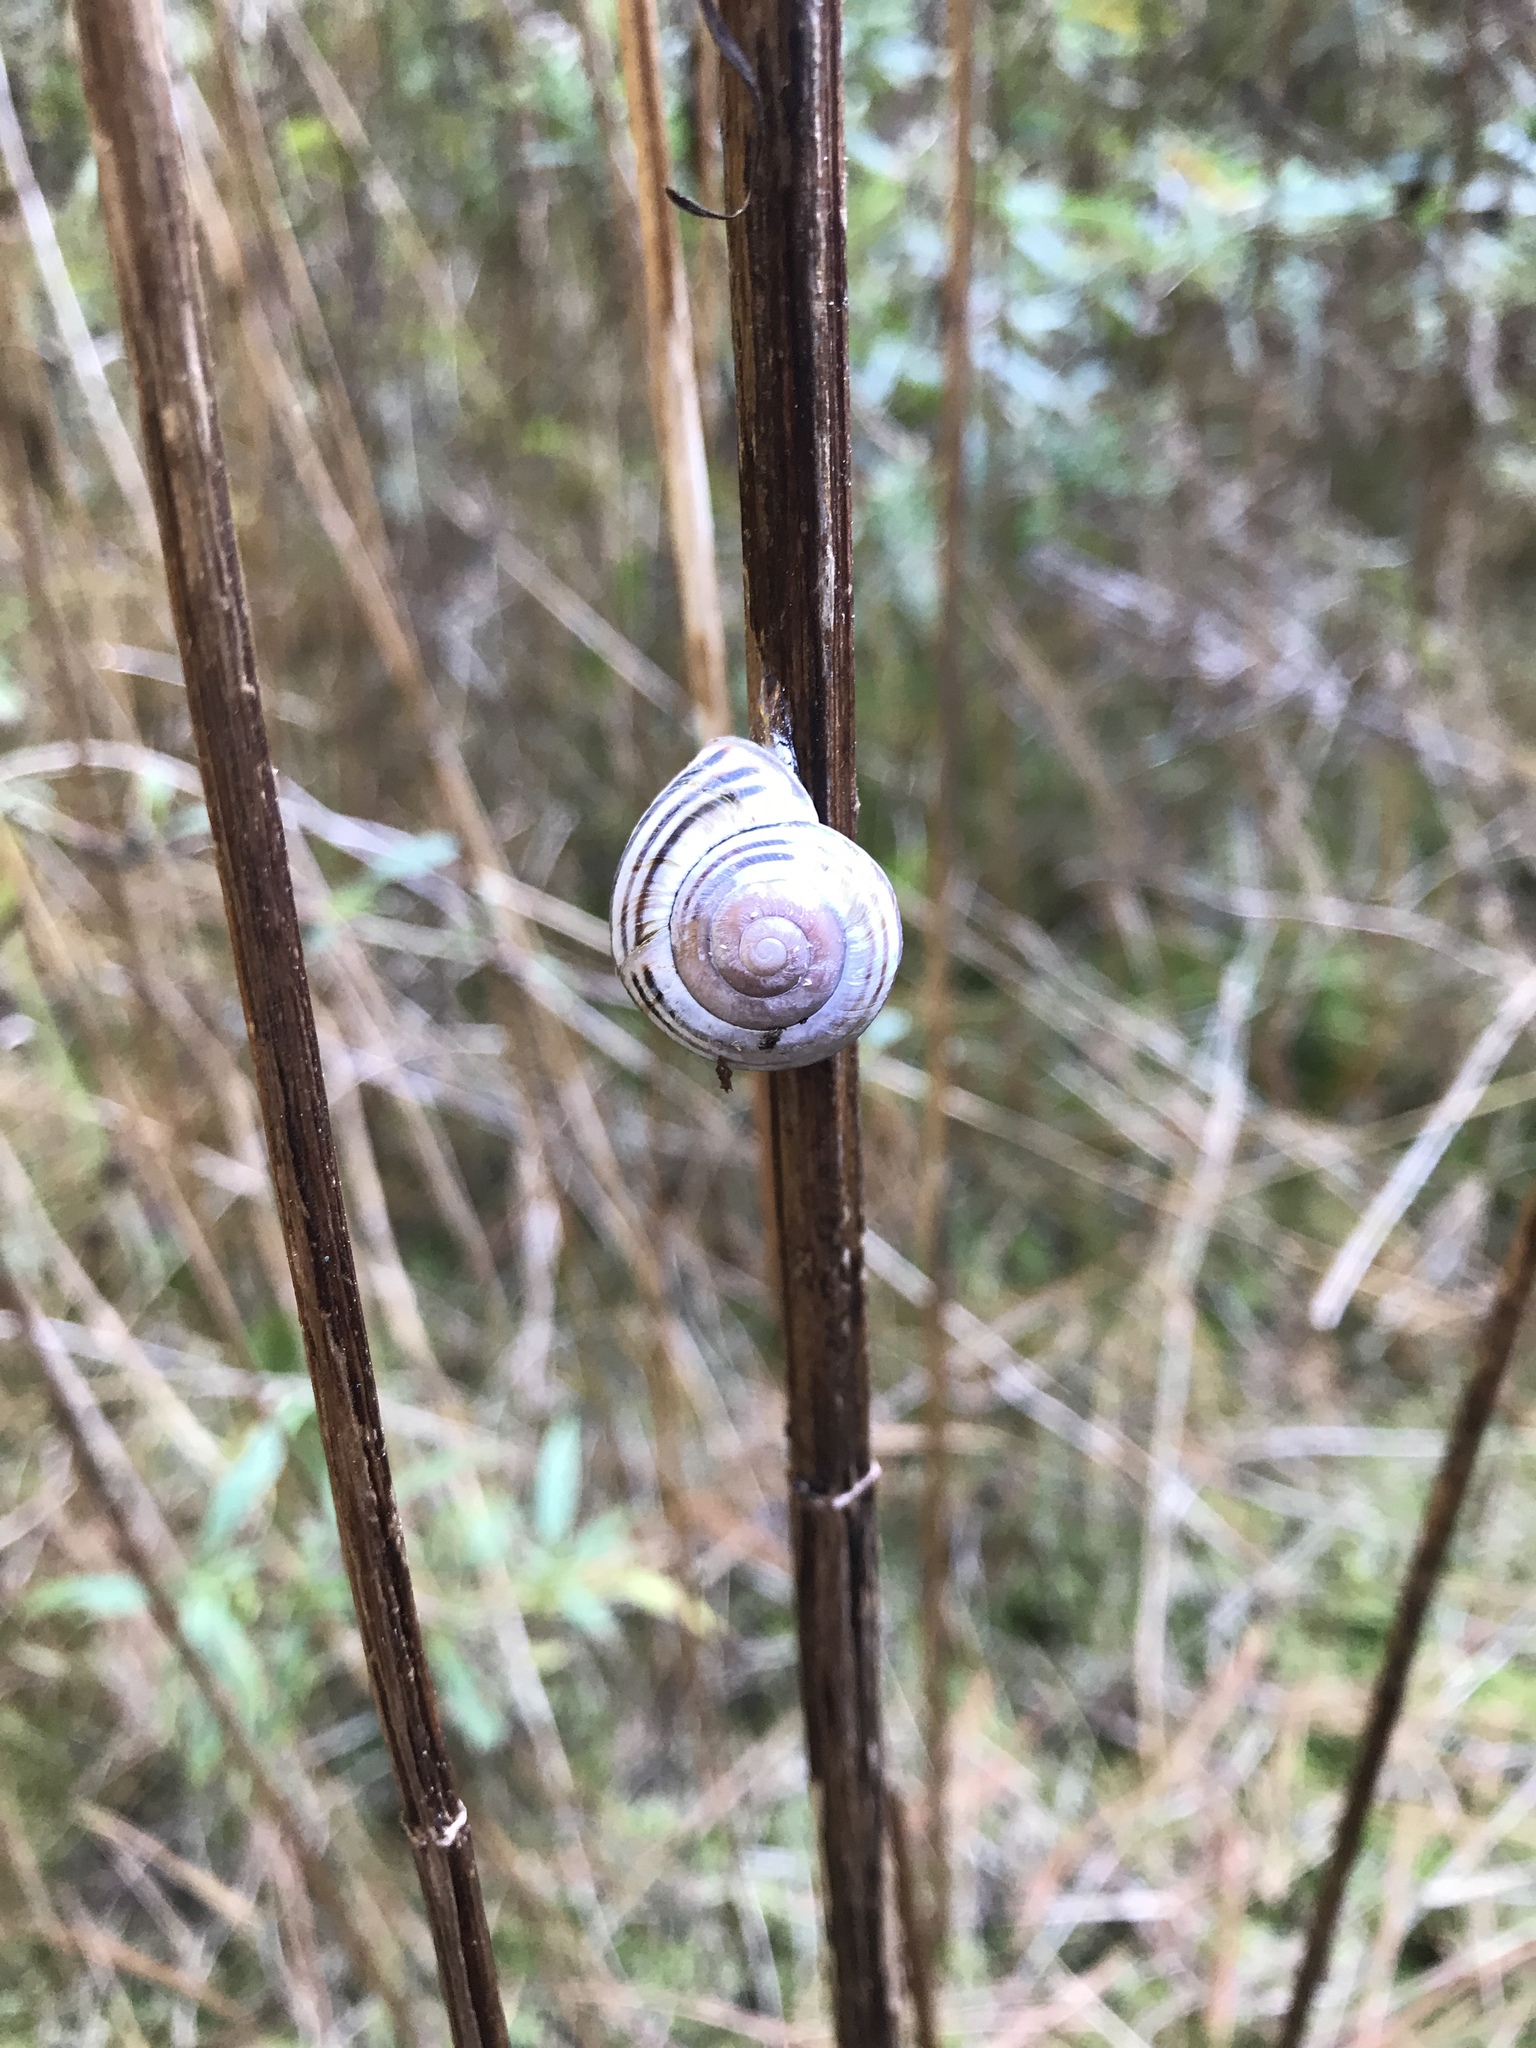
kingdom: Animalia
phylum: Mollusca
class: Gastropoda
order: Stylommatophora
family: Helicidae
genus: Cepaea
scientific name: Cepaea nemoralis
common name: Grovesnail
